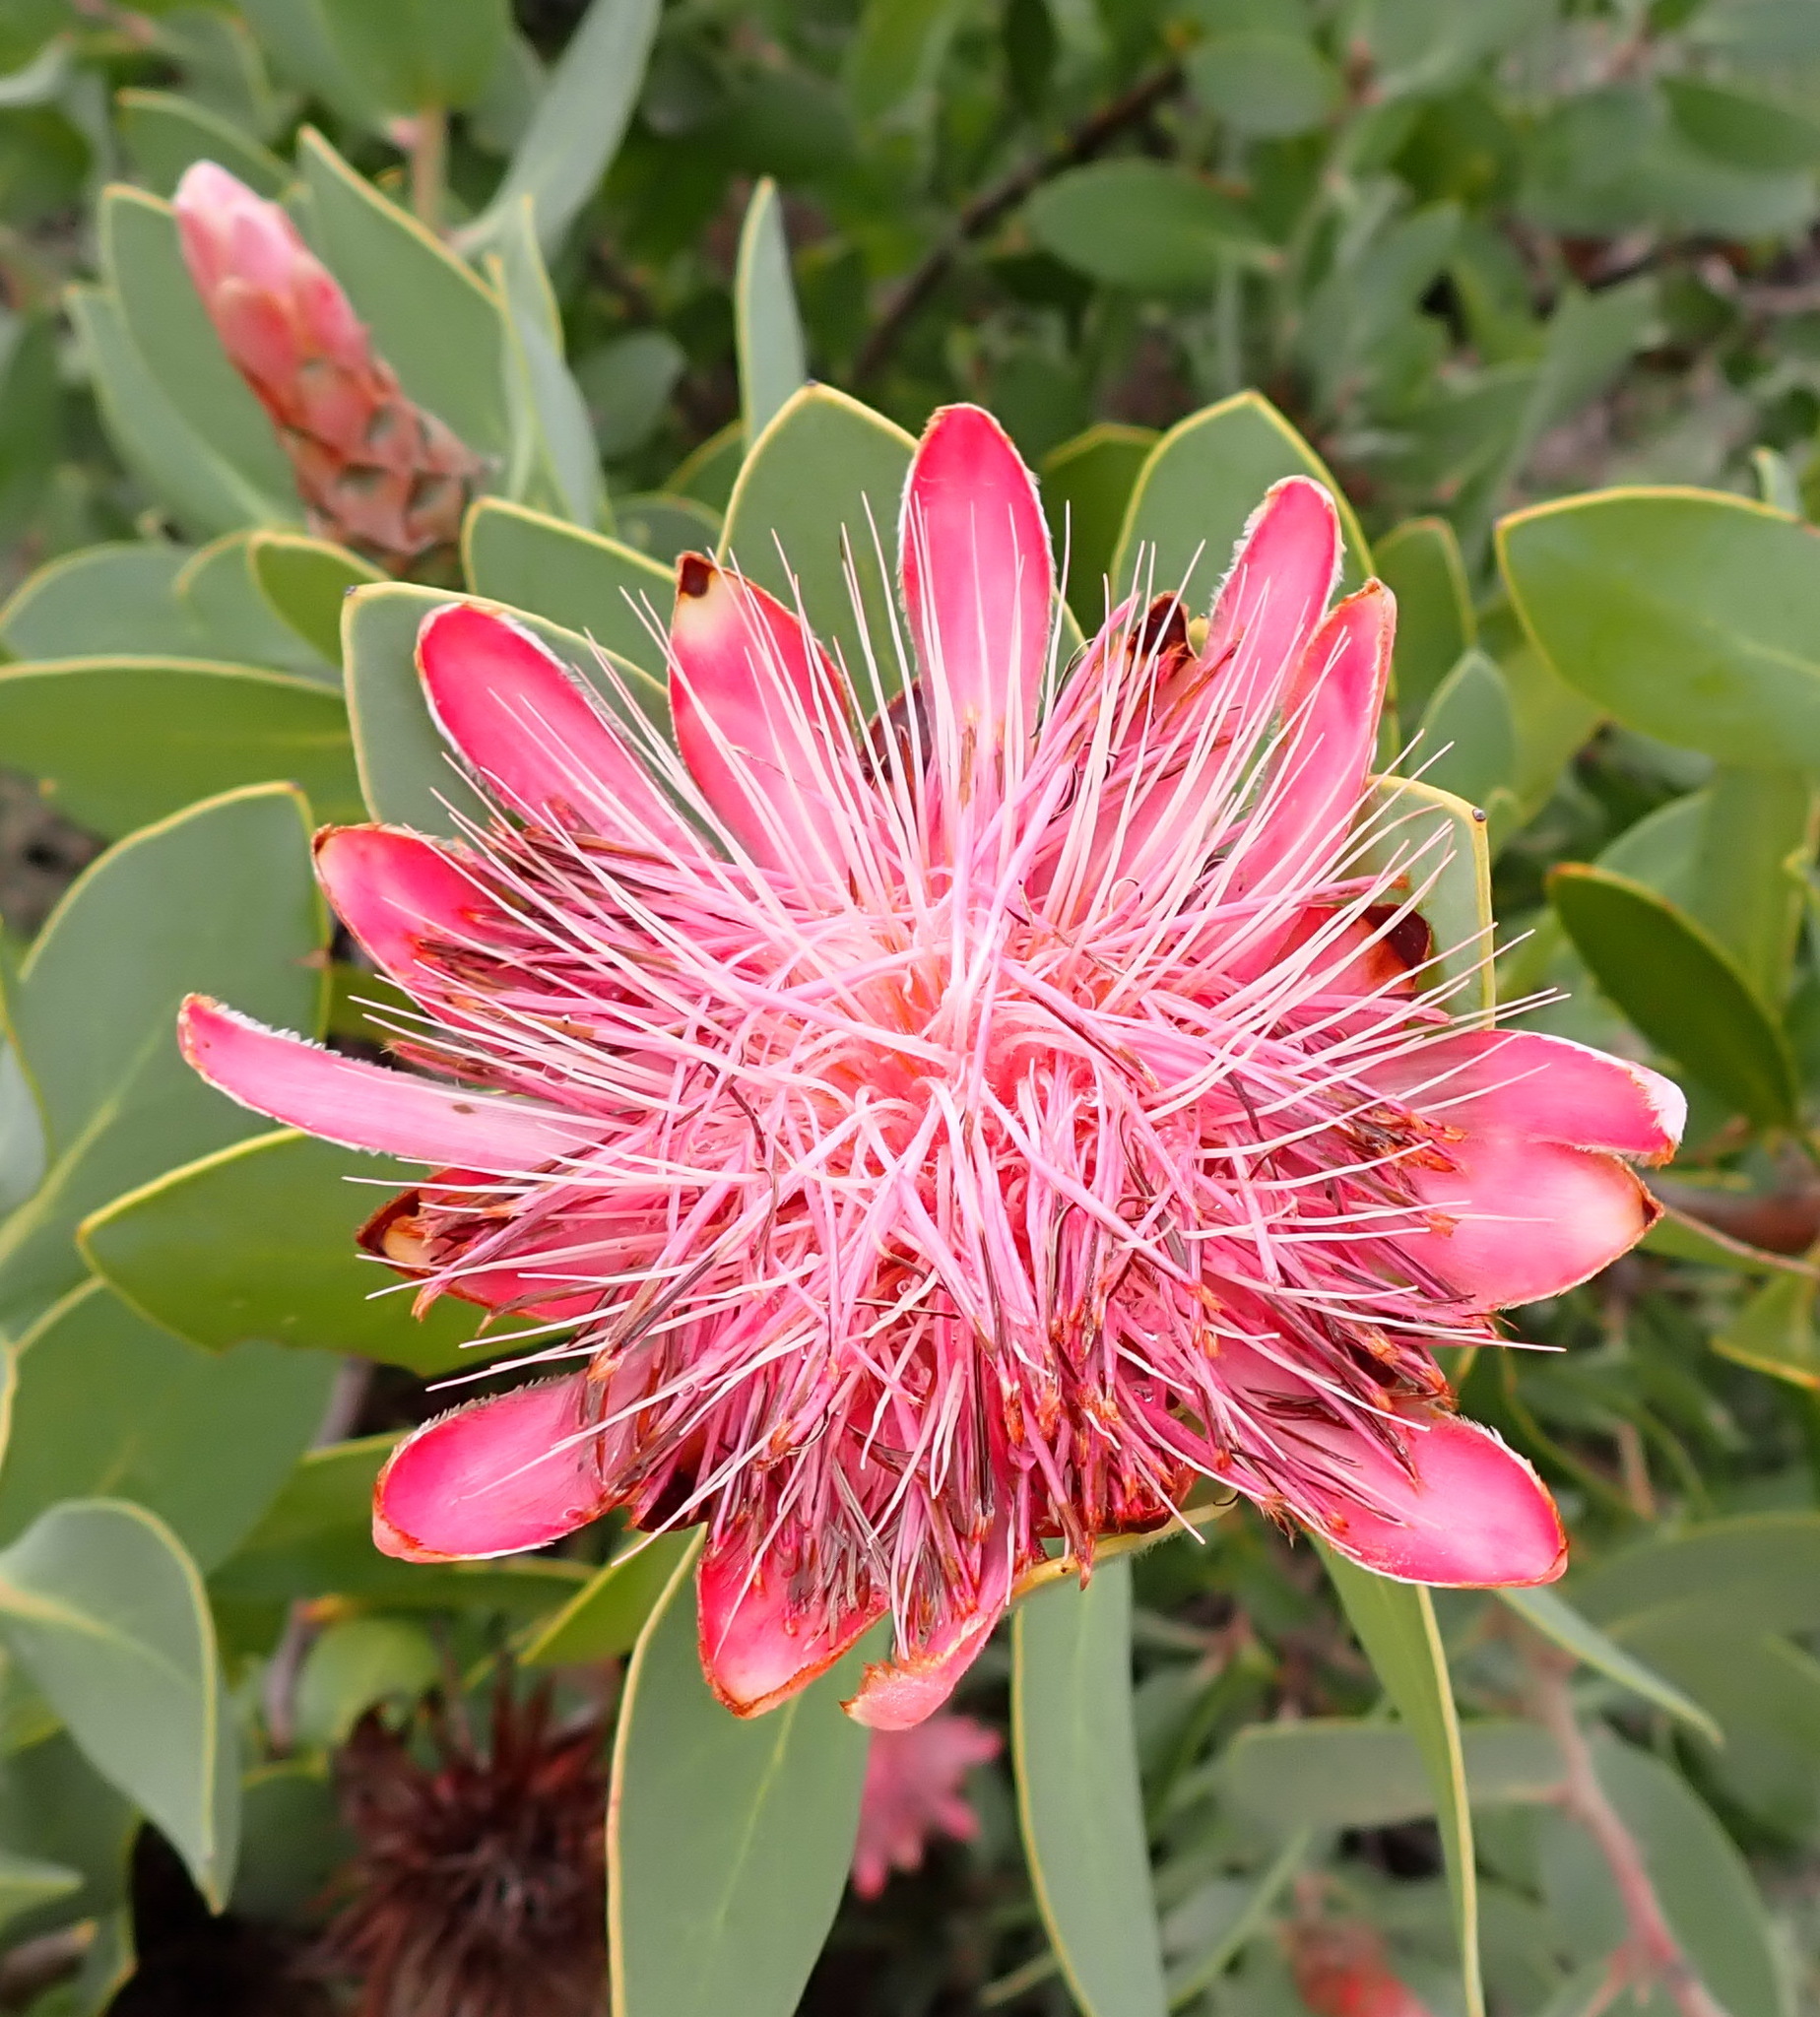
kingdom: Plantae
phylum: Tracheophyta
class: Magnoliopsida
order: Proteales
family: Proteaceae
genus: Protea
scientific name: Protea punctata
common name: Water sugarbush
